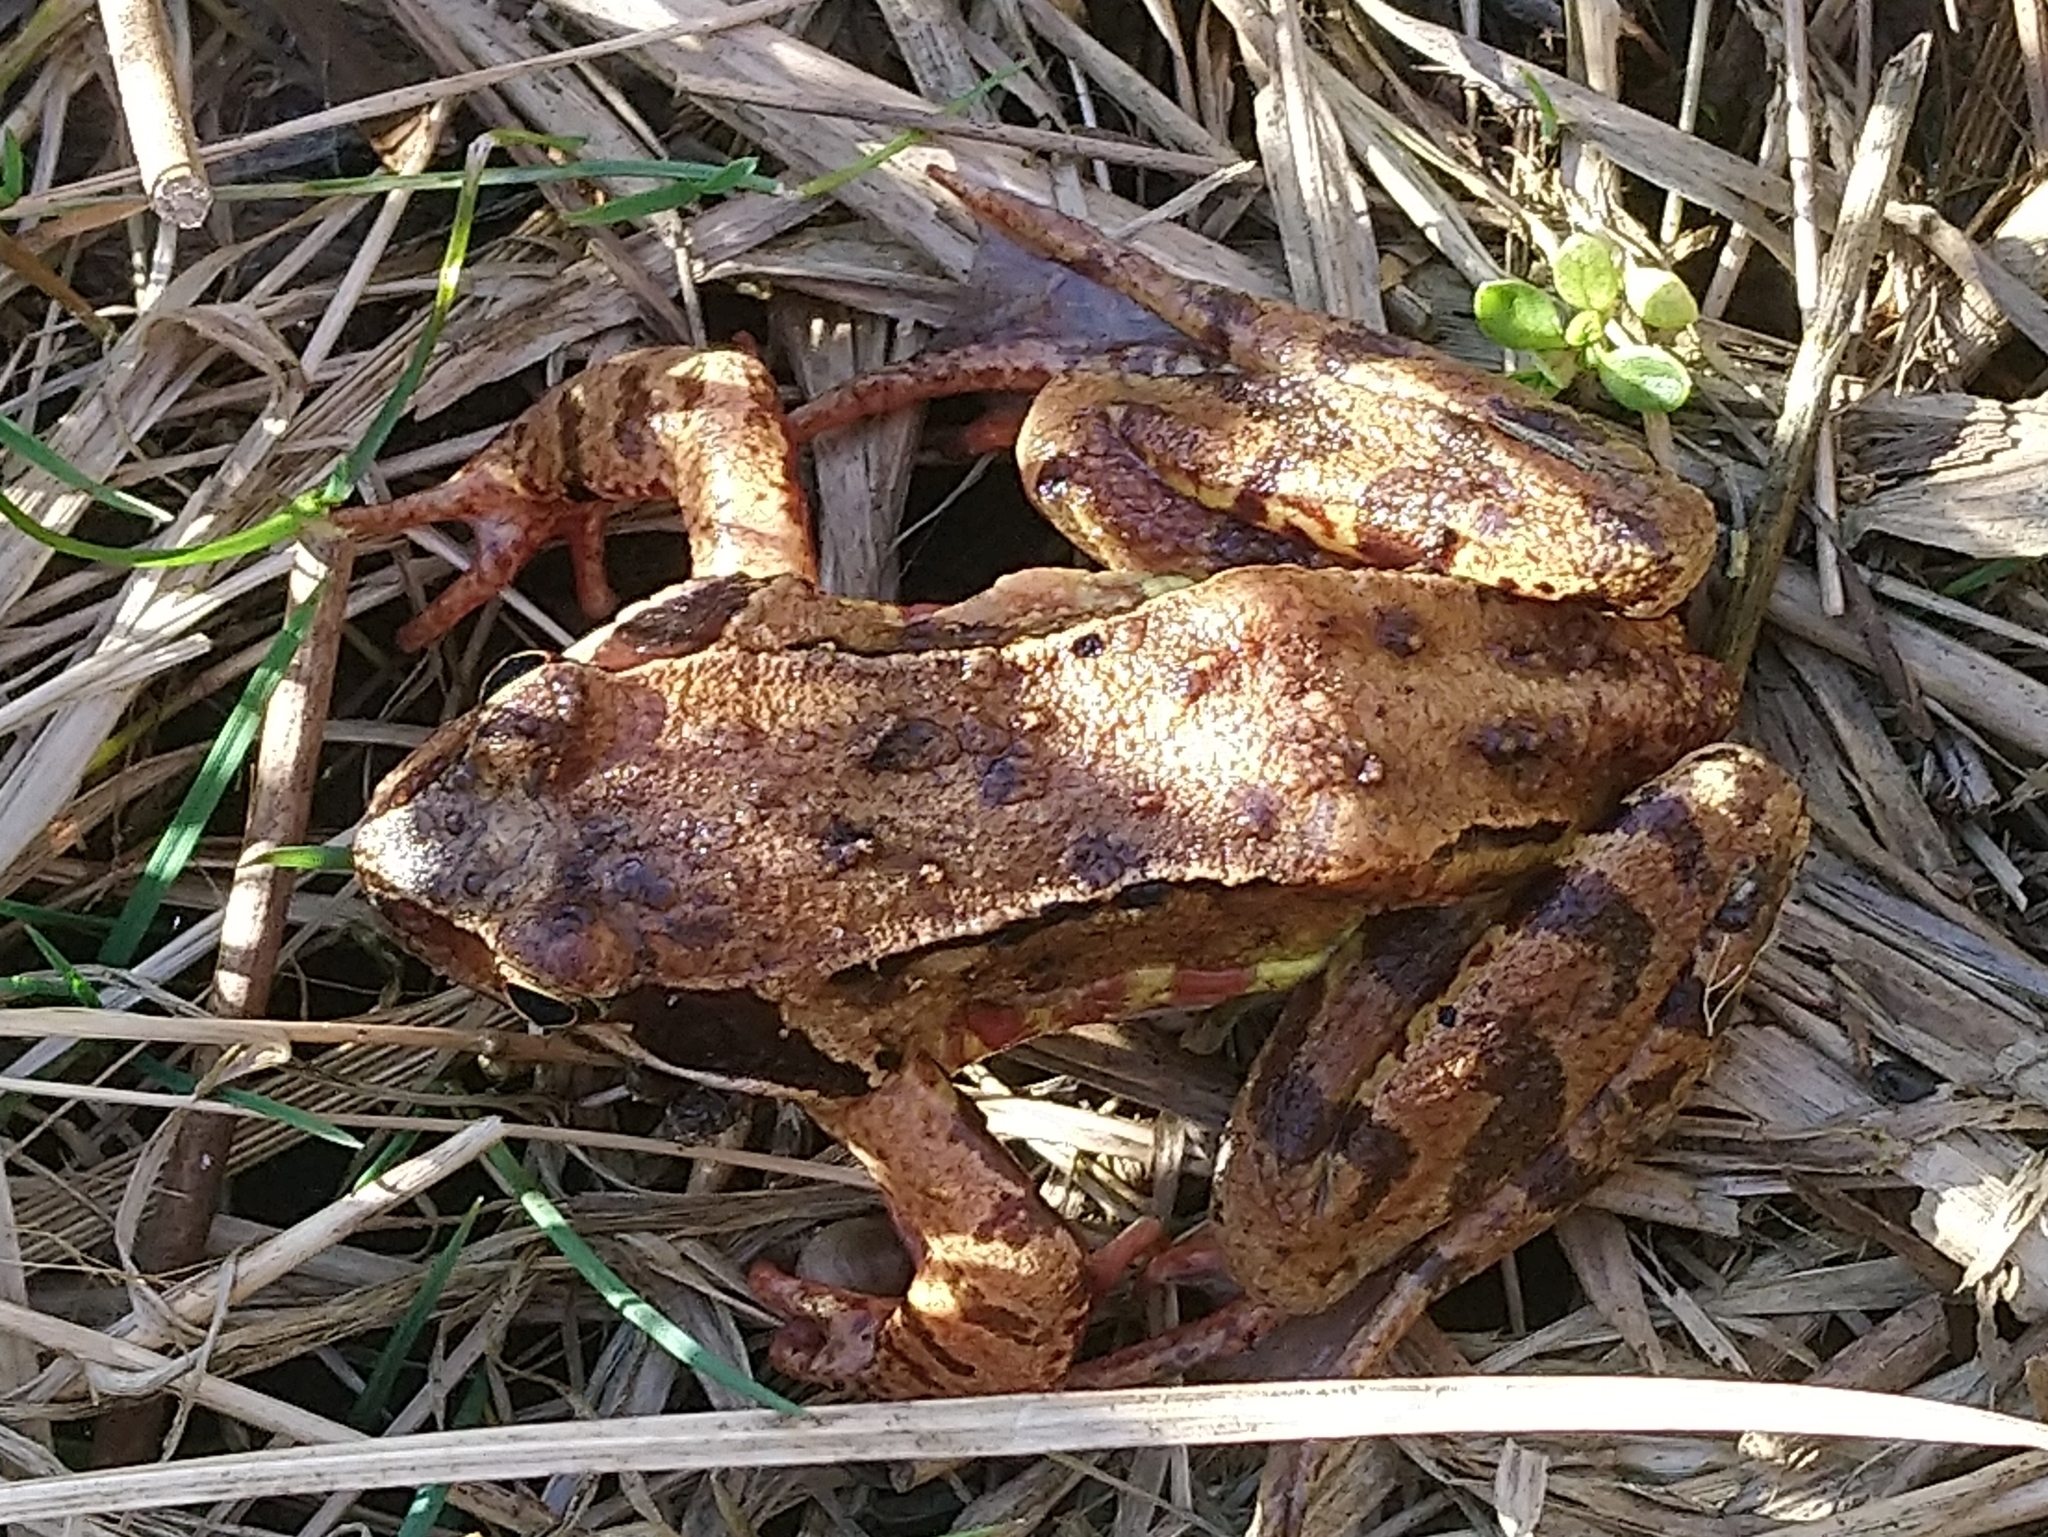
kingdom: Animalia
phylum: Chordata
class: Amphibia
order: Anura
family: Ranidae
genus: Rana
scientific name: Rana temporaria
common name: Common frog
